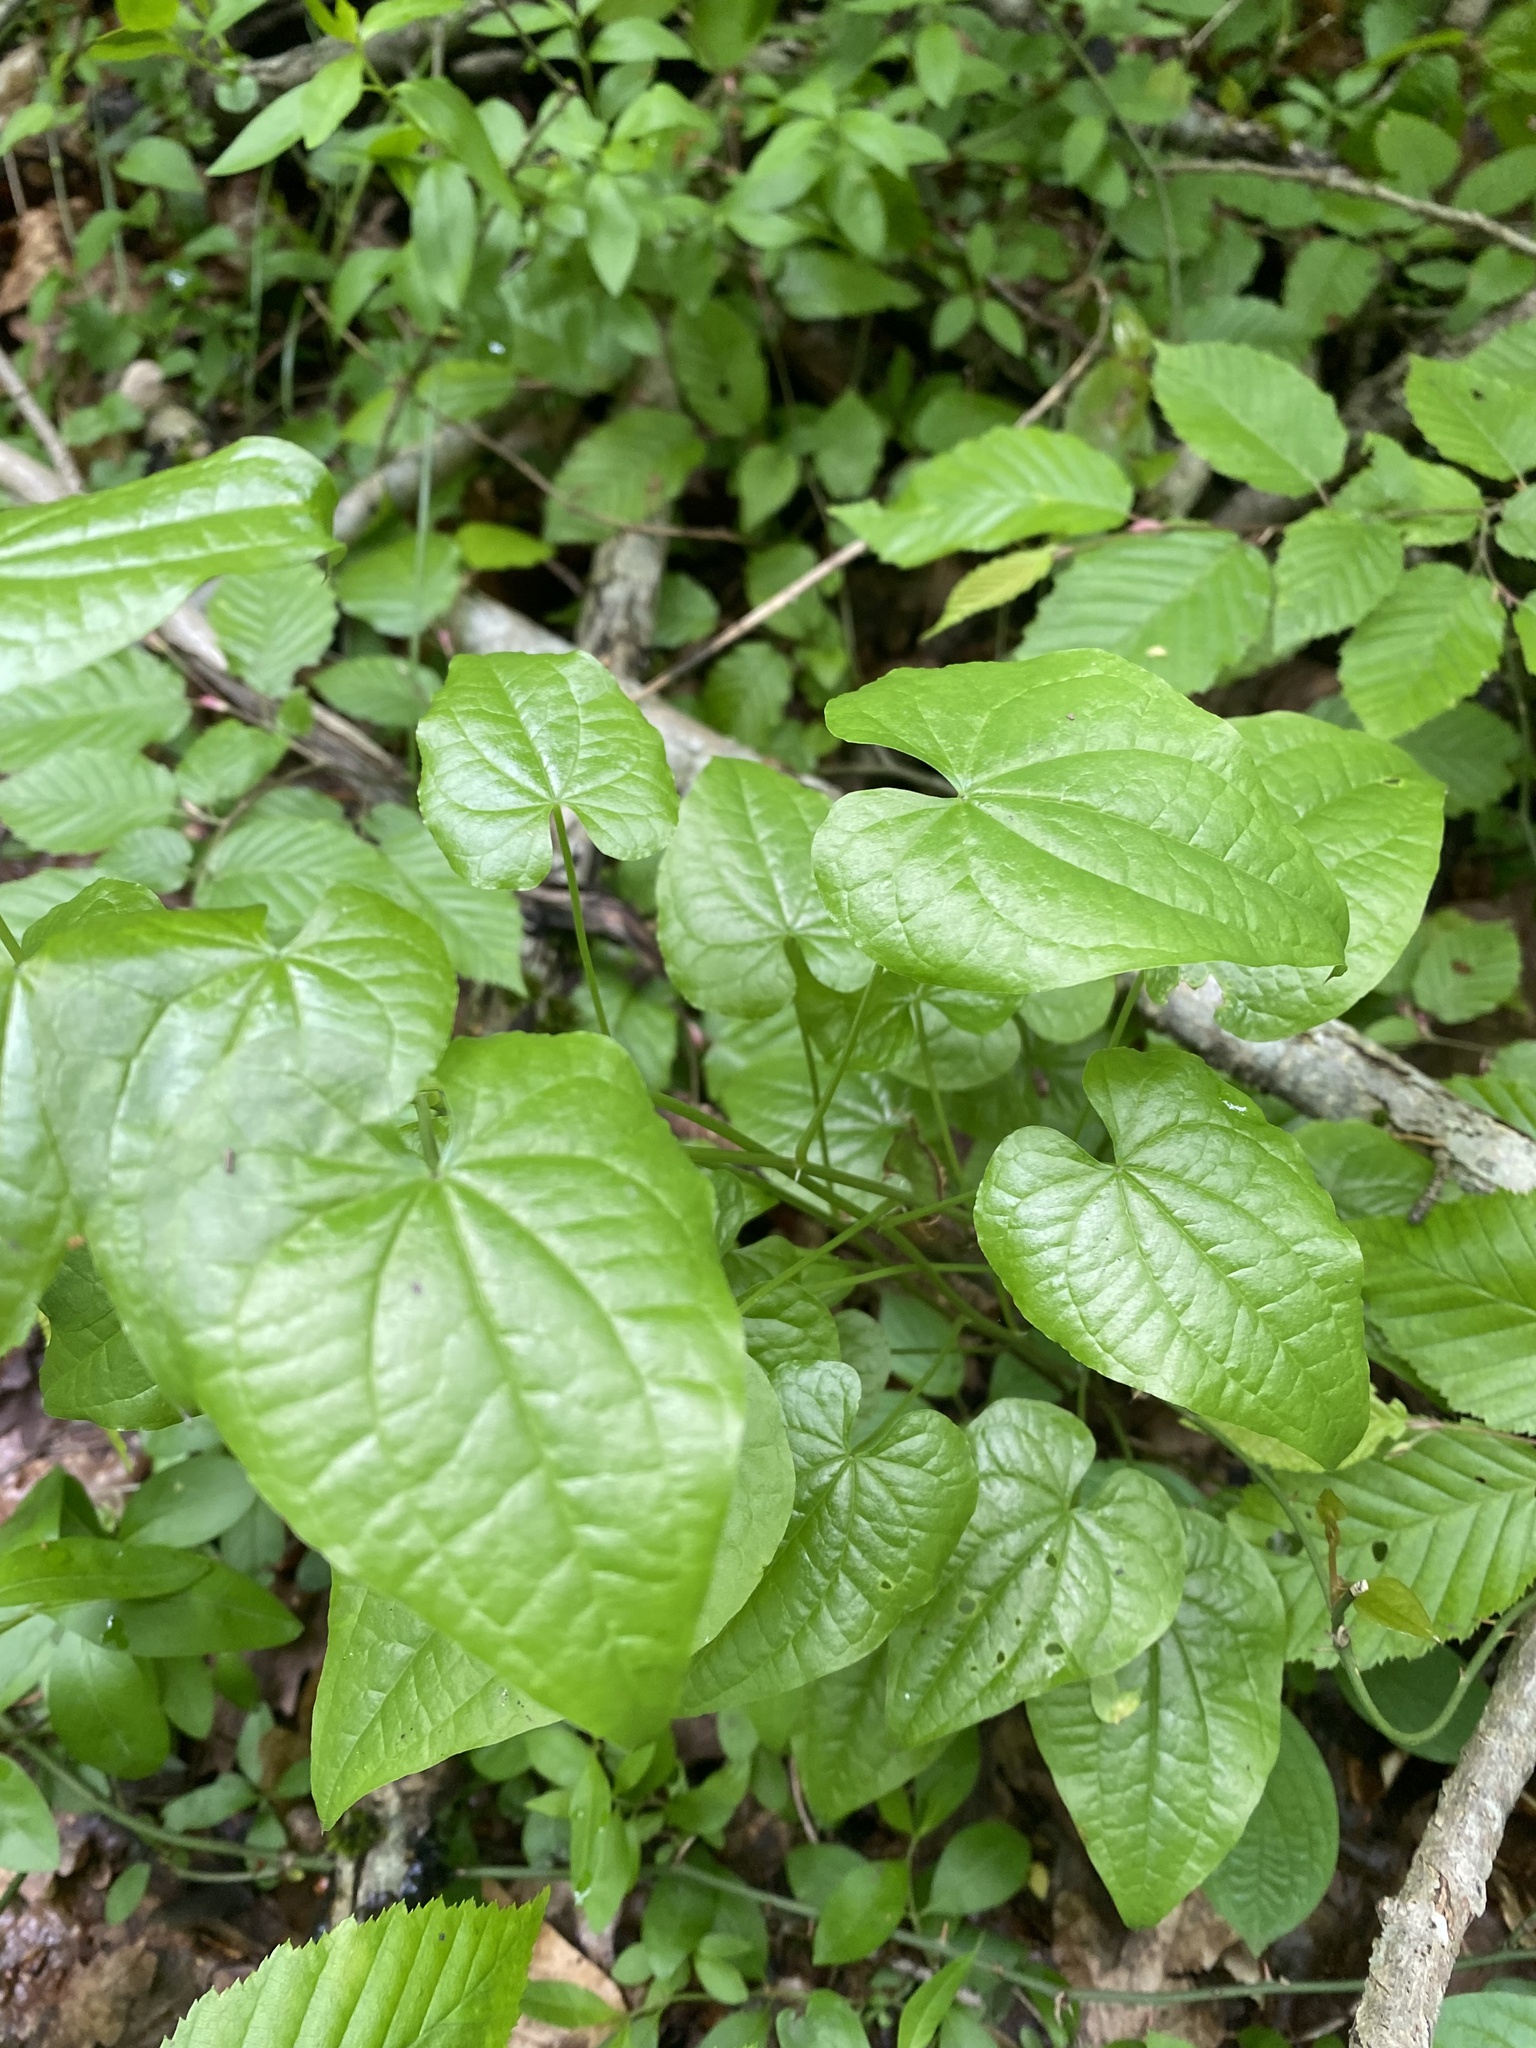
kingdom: Plantae
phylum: Tracheophyta
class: Liliopsida
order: Dioscoreales
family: Dioscoreaceae
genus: Dioscorea
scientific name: Dioscorea communis
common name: Black-bindweed
